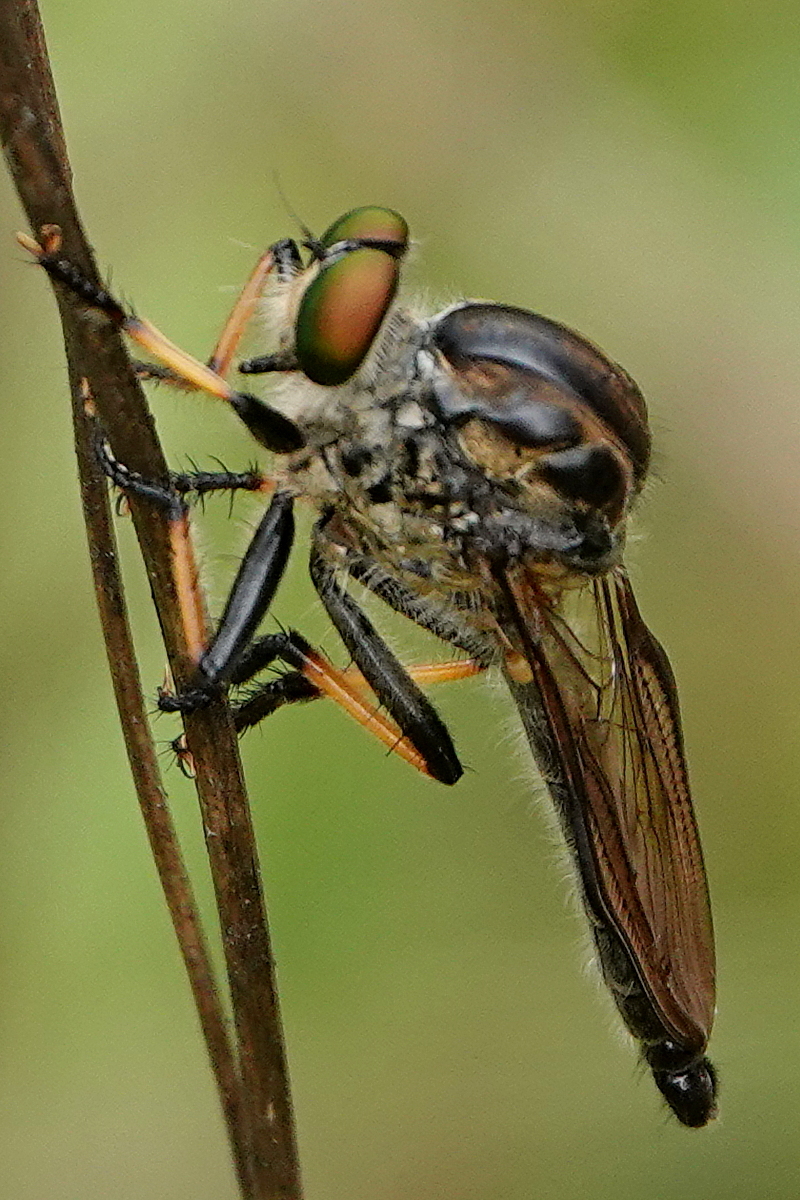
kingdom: Animalia
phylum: Arthropoda
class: Insecta
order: Diptera
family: Asilidae
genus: Ommatius
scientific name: Ommatius coeraebus
